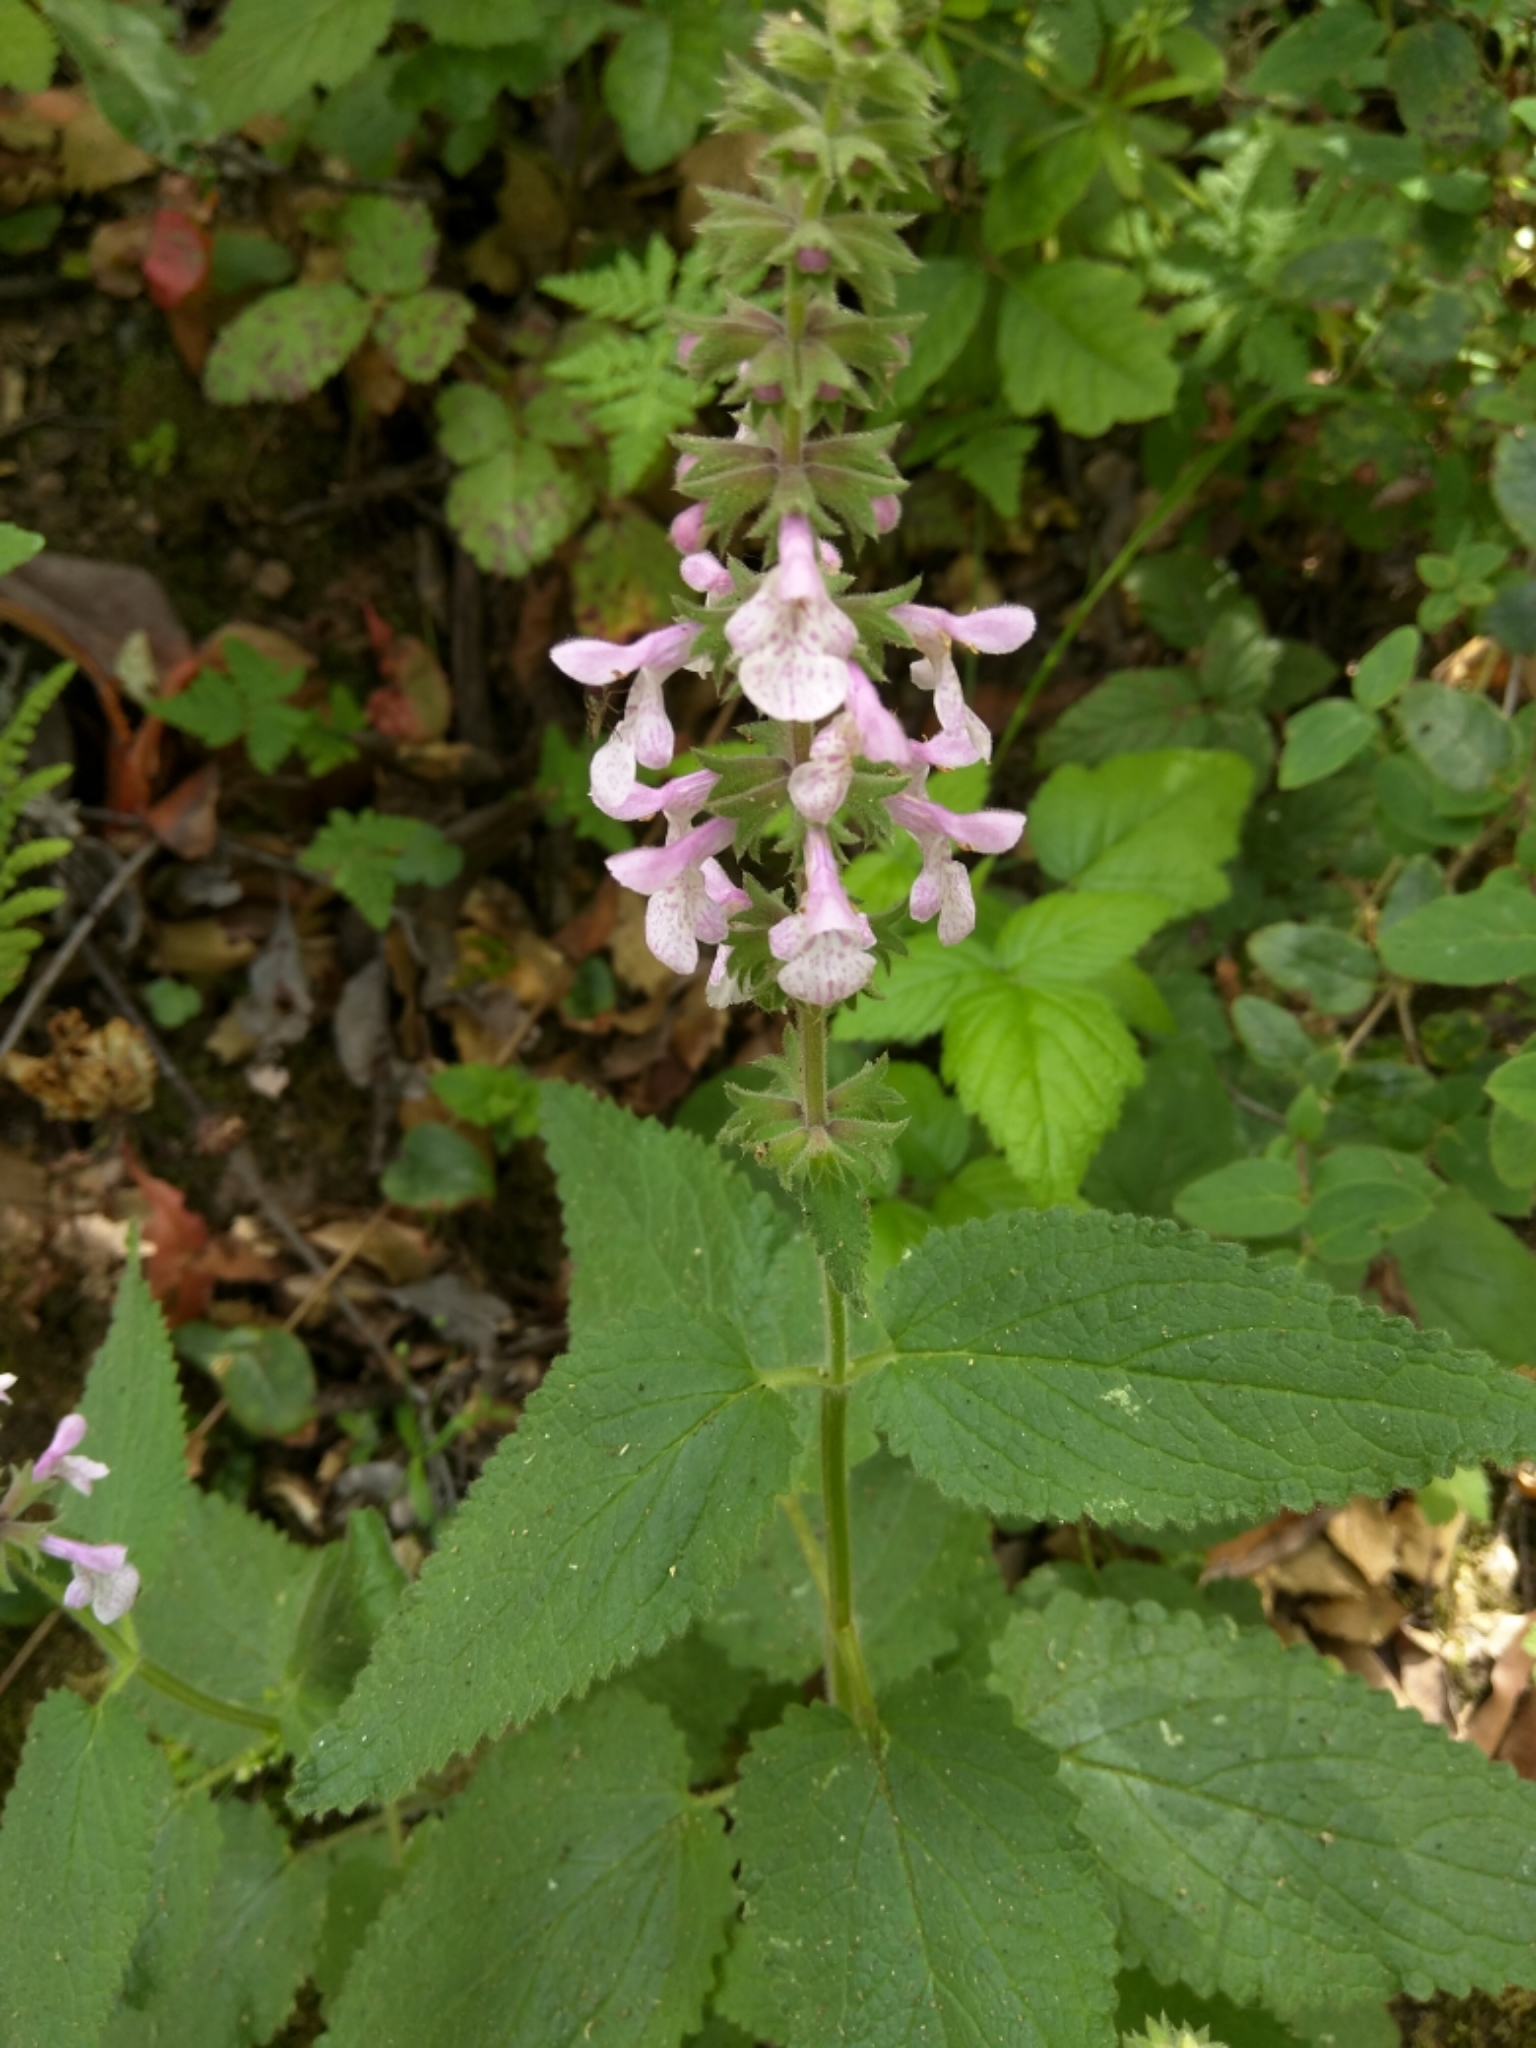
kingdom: Plantae
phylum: Tracheophyta
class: Magnoliopsida
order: Lamiales
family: Lamiaceae
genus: Stachys
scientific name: Stachys bullata
